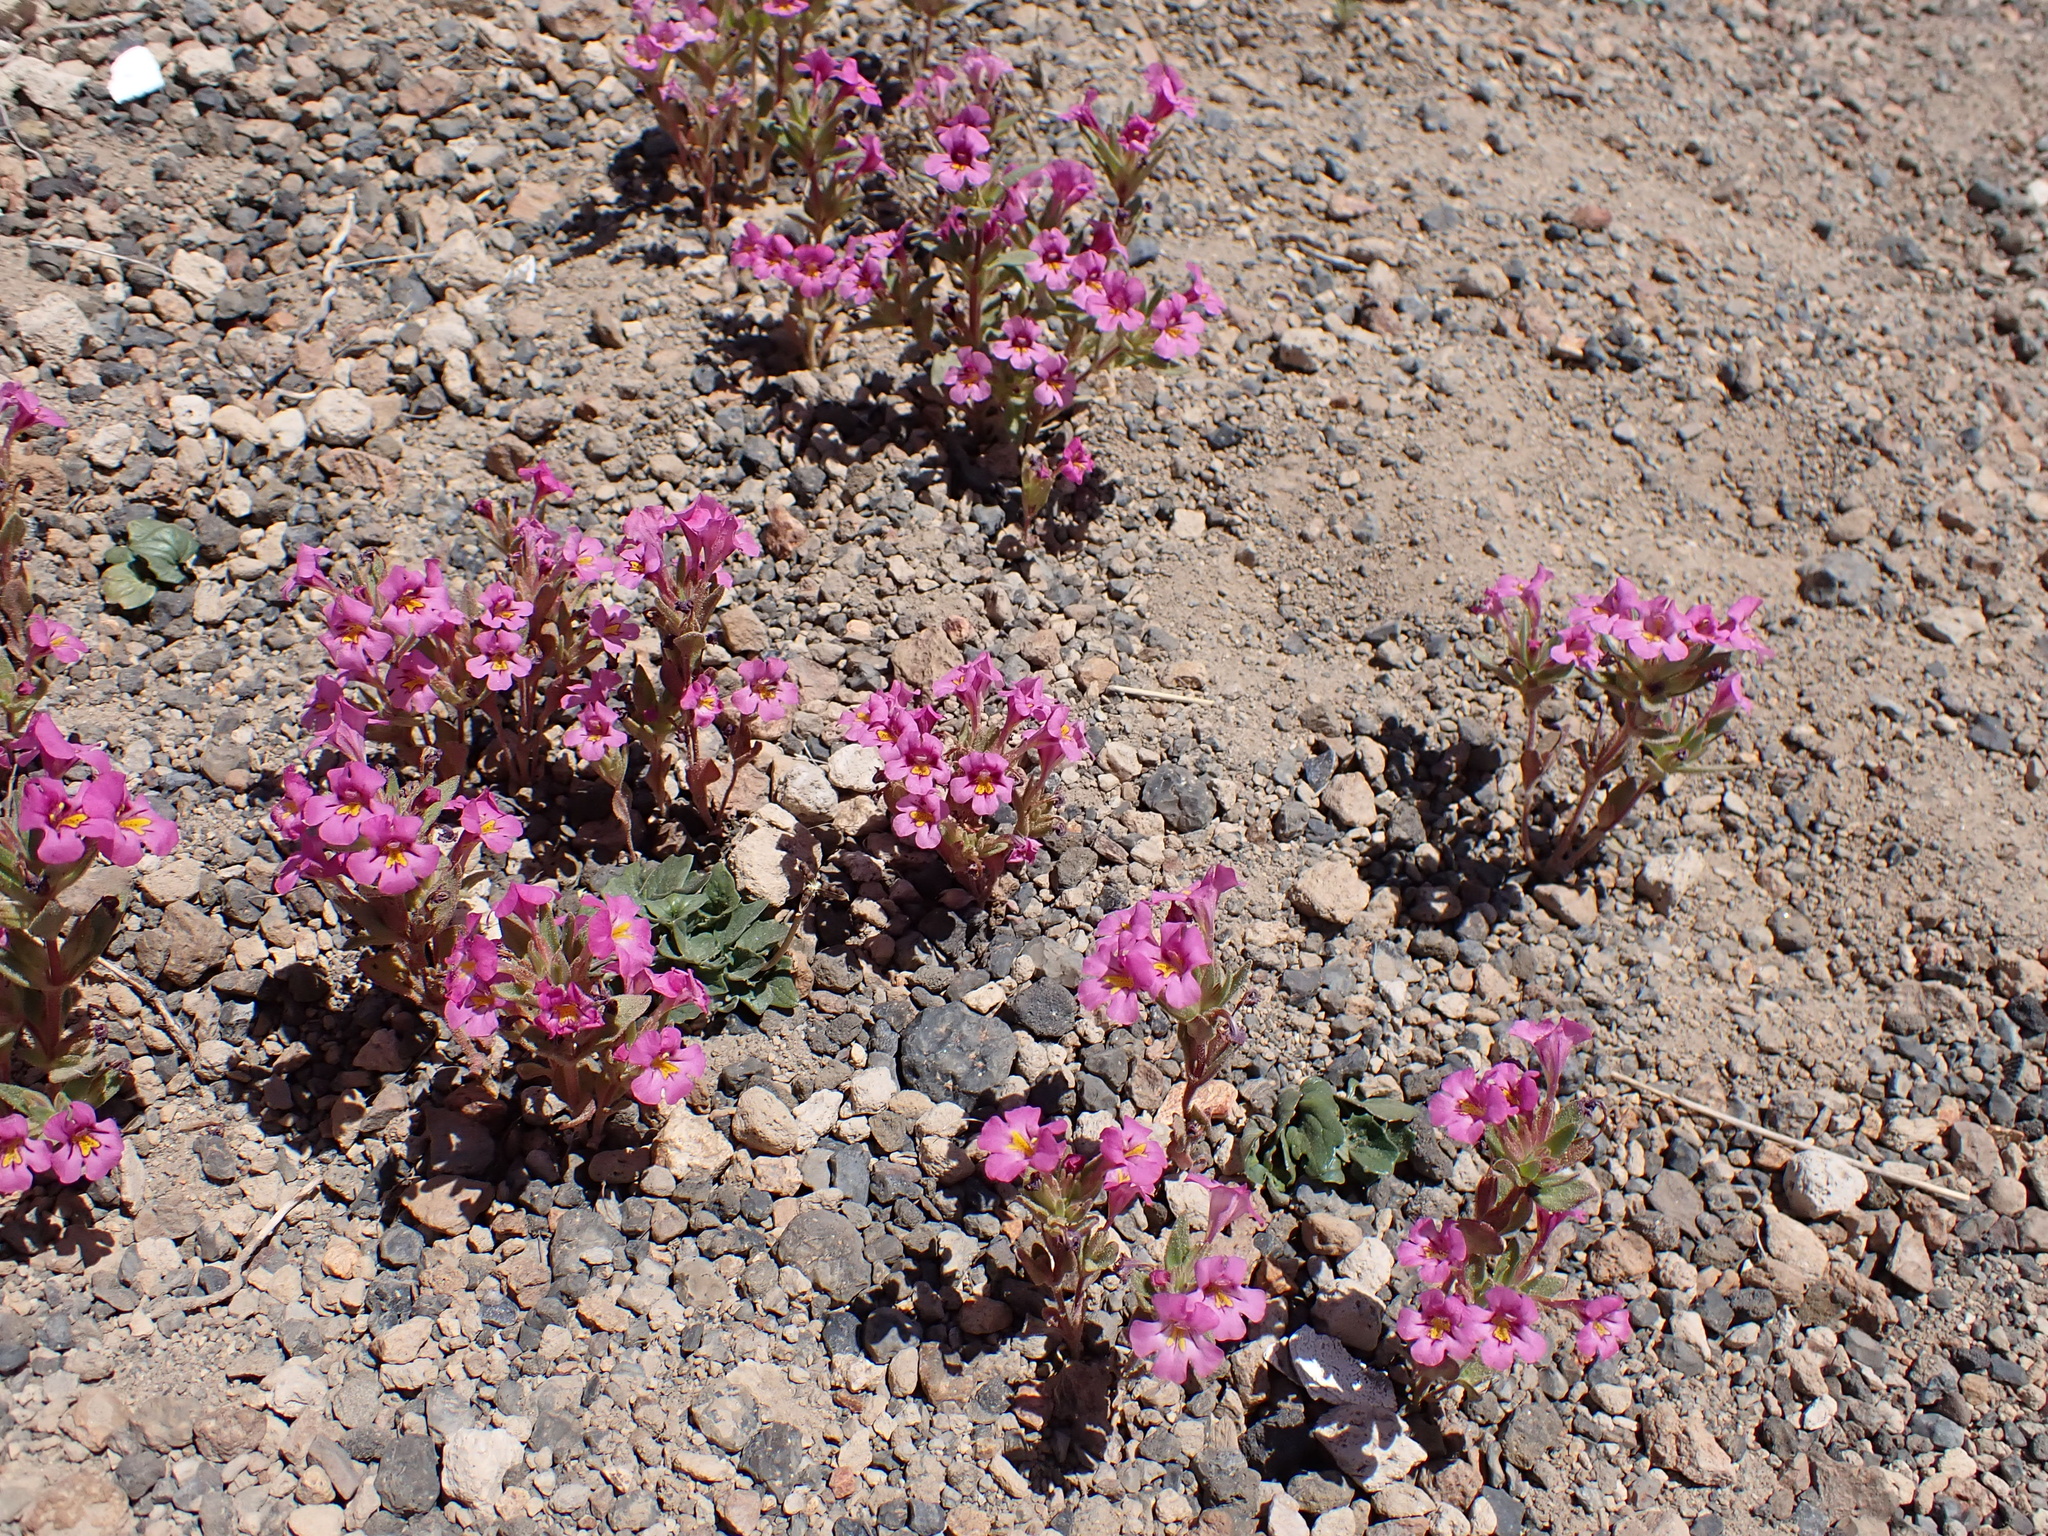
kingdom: Plantae
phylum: Tracheophyta
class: Magnoliopsida
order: Lamiales
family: Phrymaceae
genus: Diplacus
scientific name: Diplacus mephiticus
